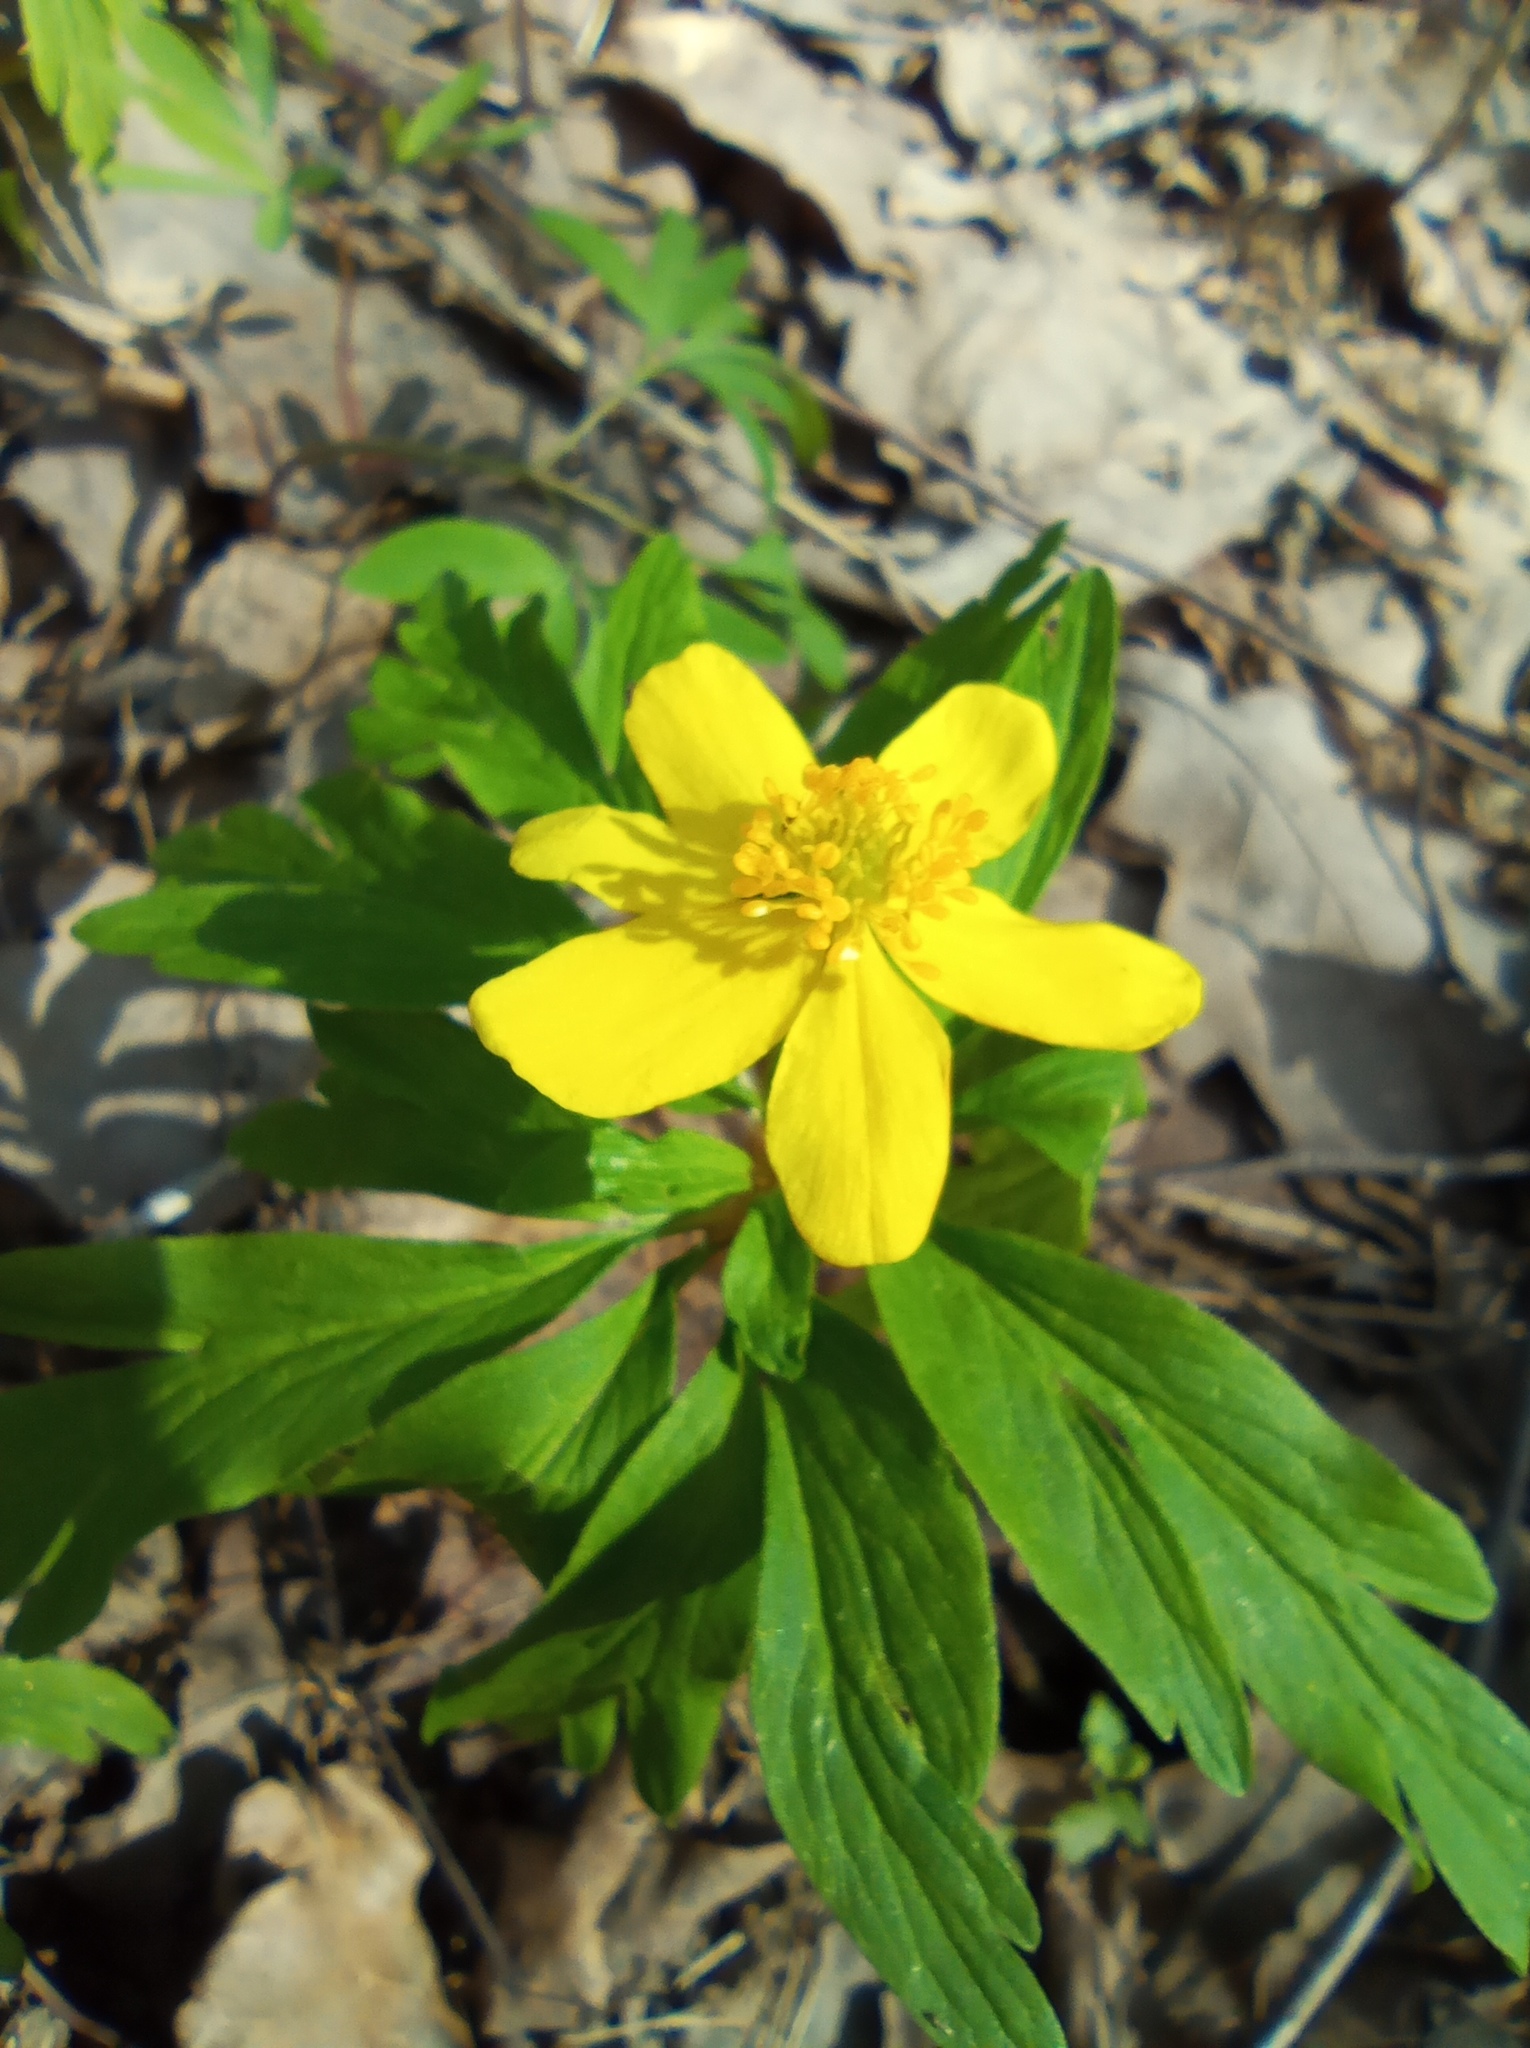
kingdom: Plantae
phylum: Tracheophyta
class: Magnoliopsida
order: Ranunculales
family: Ranunculaceae
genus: Anemone
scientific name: Anemone ranunculoides
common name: Yellow anemone
